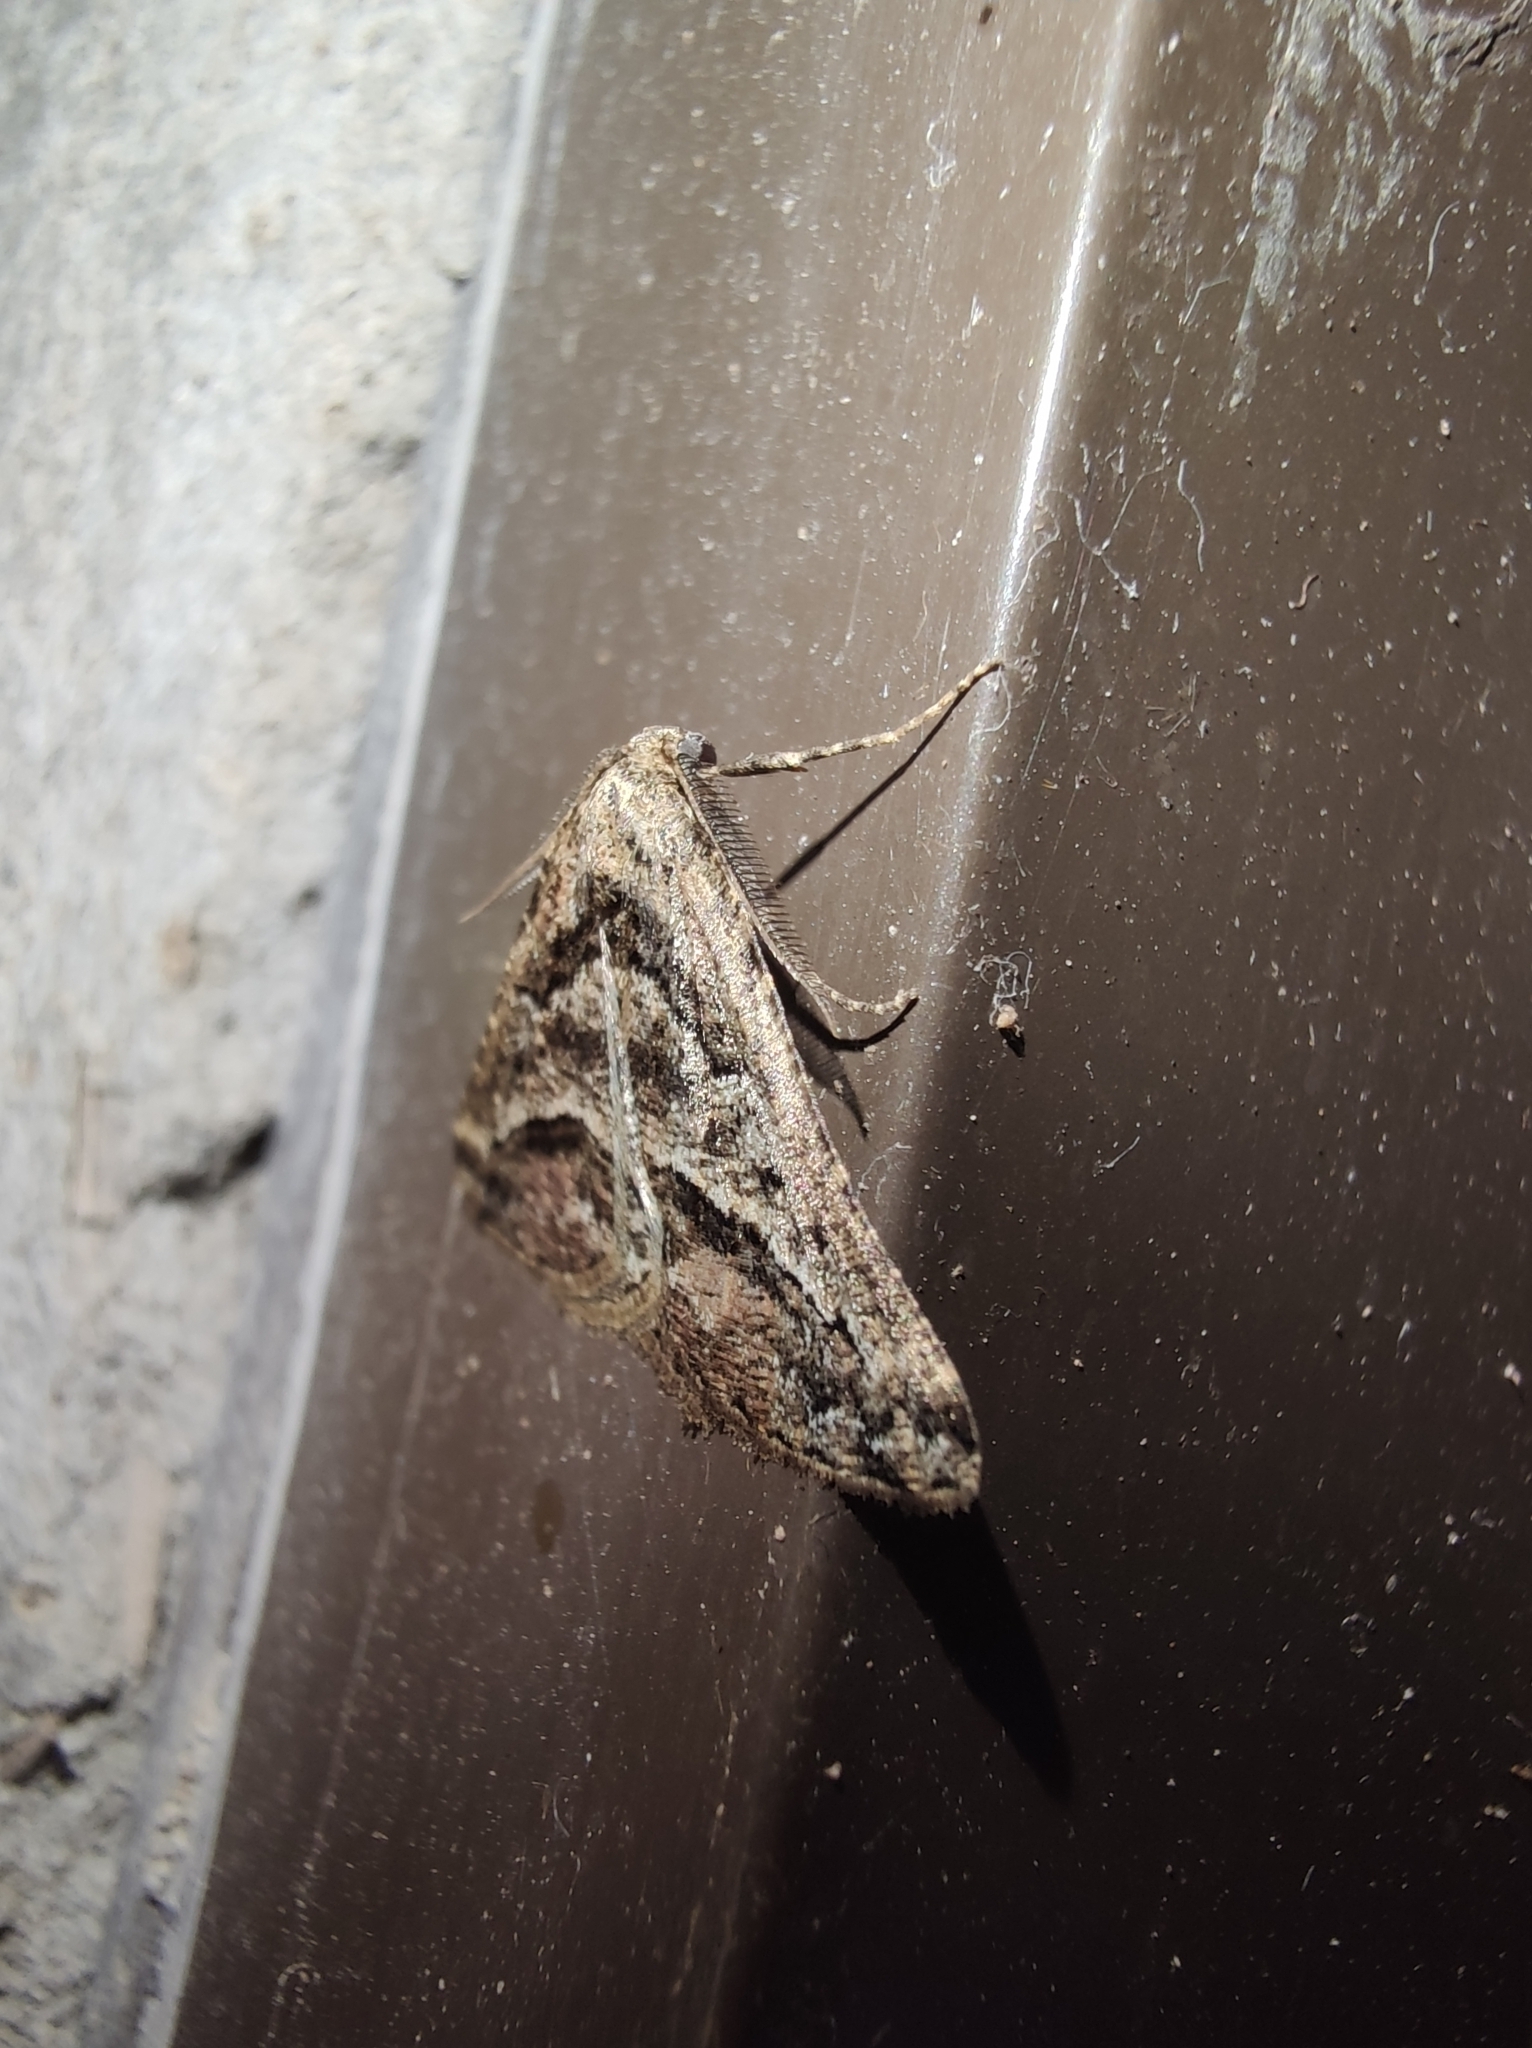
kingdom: Animalia
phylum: Arthropoda
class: Insecta
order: Lepidoptera
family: Geometridae
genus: Hypotephrina
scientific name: Hypotephrina serrimargo
